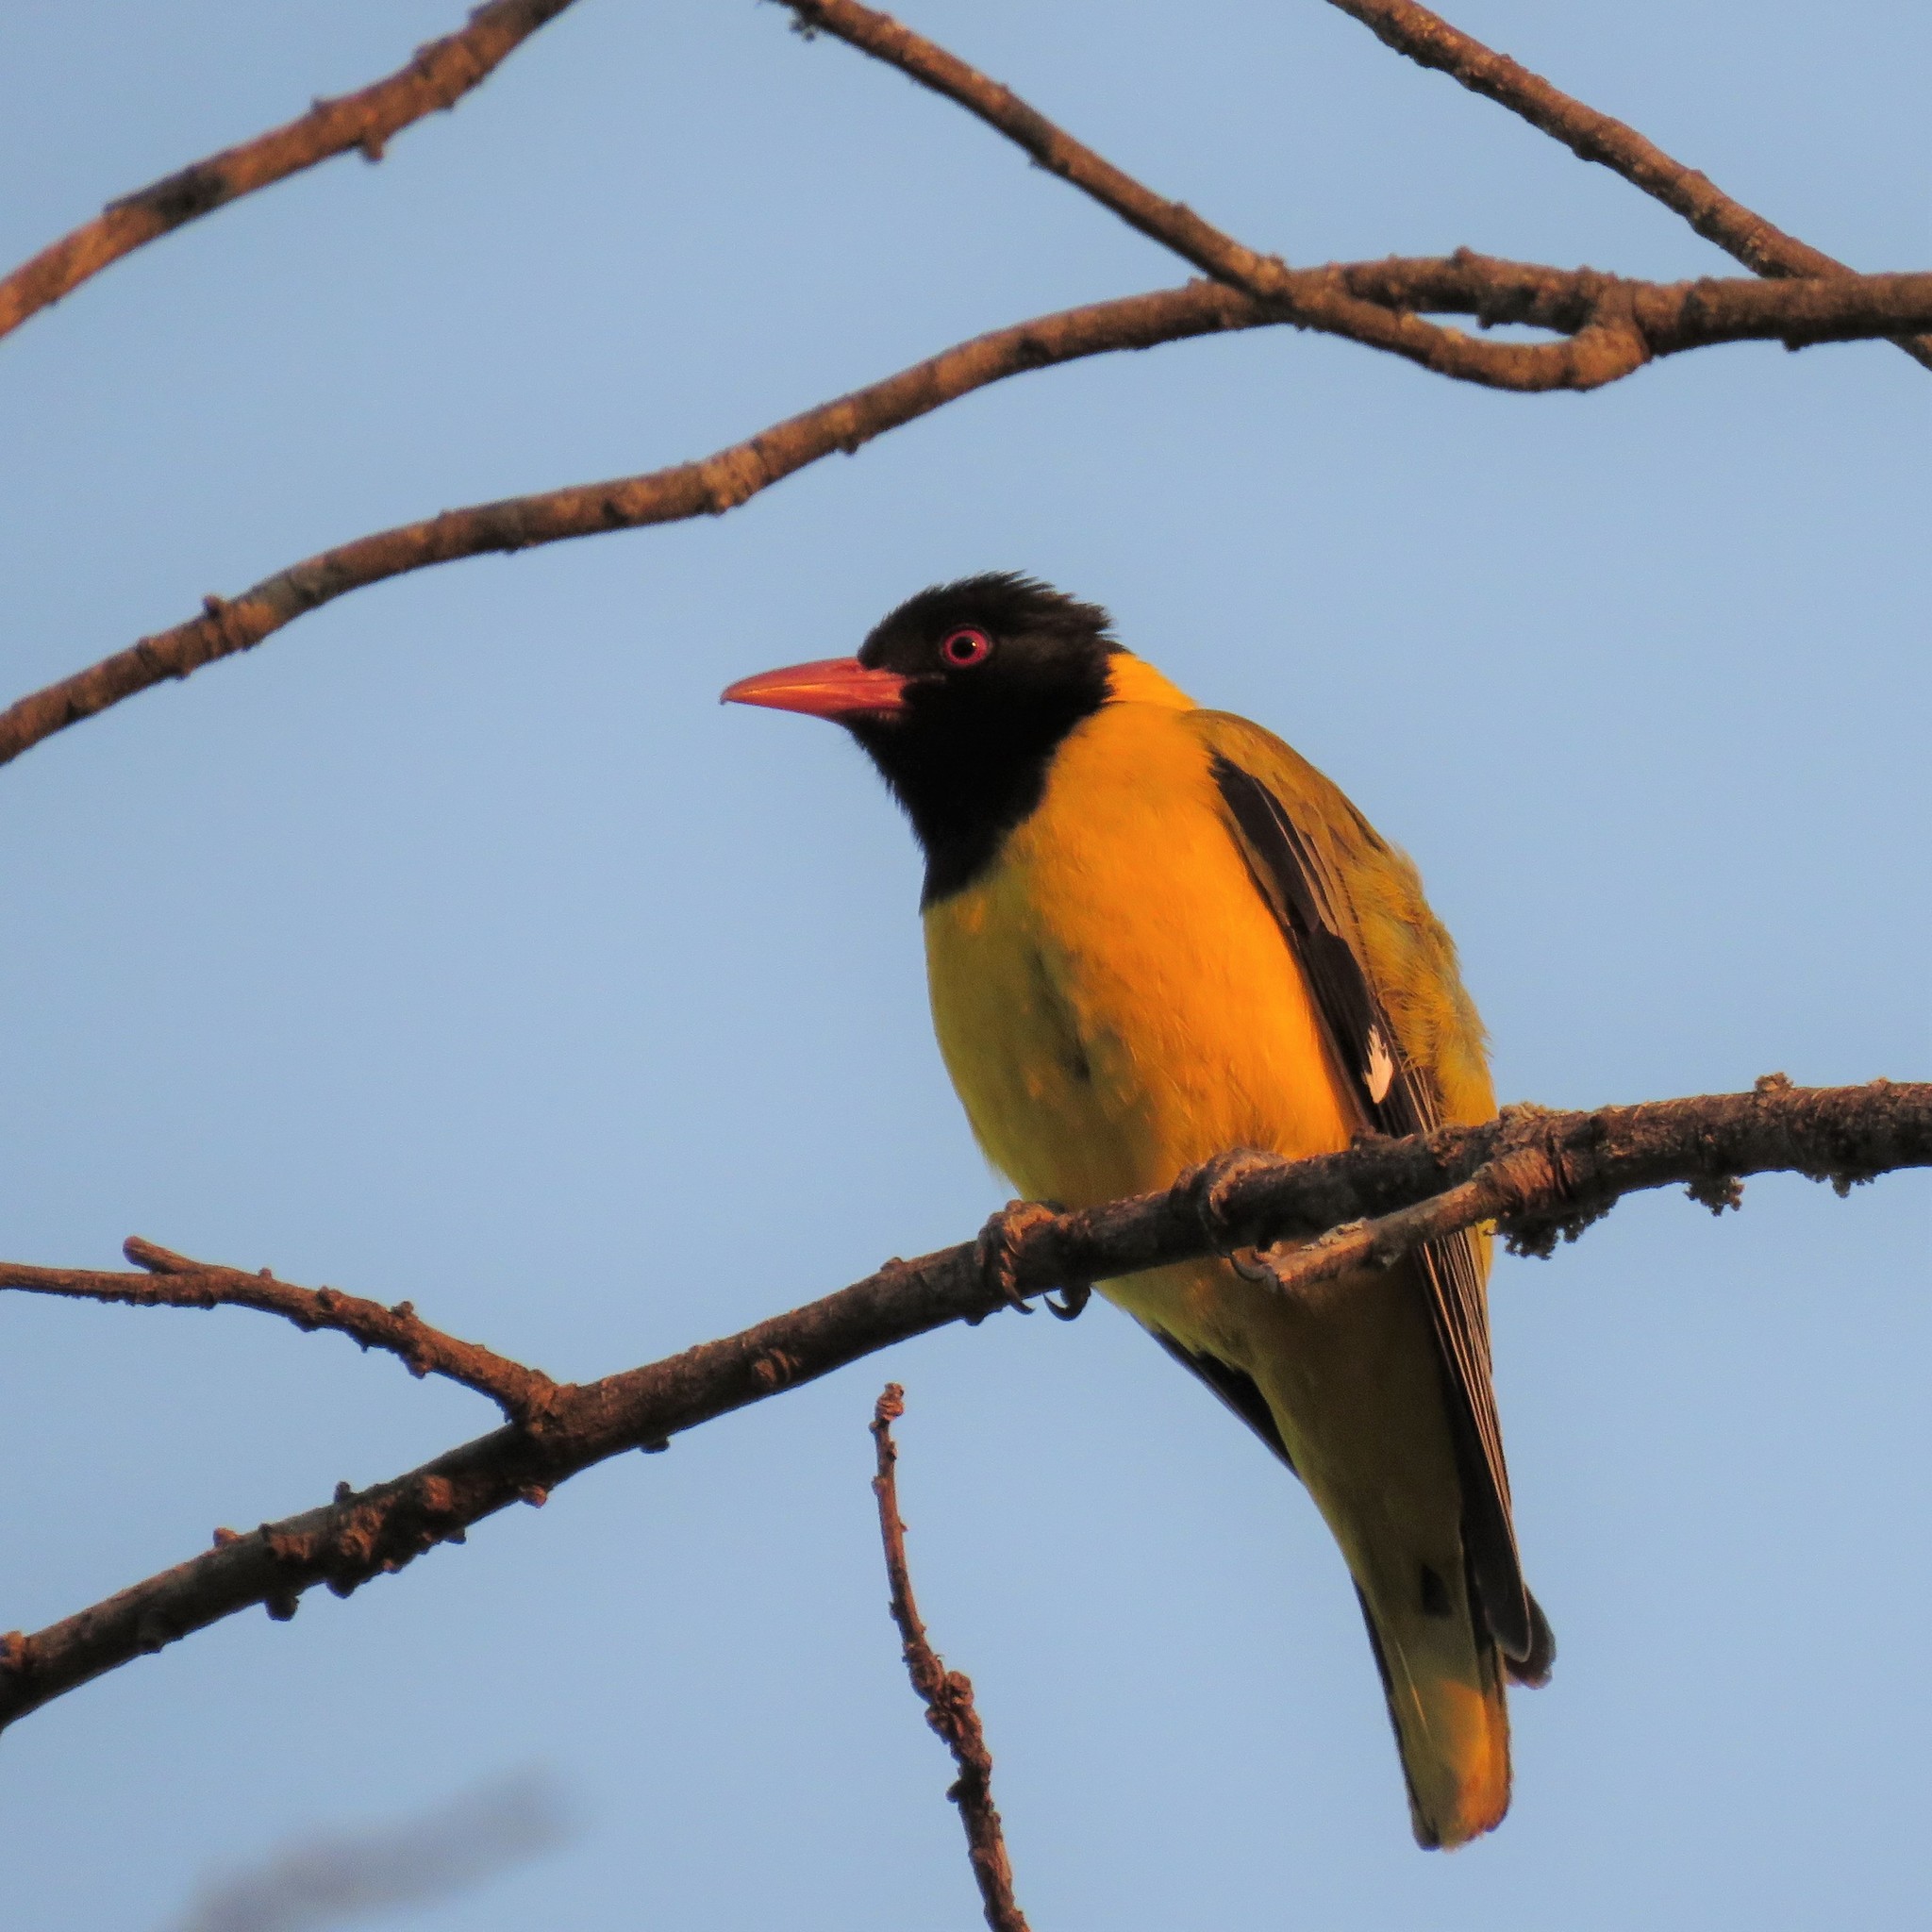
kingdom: Animalia
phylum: Chordata
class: Aves
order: Passeriformes
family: Oriolidae
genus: Oriolus
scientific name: Oriolus larvatus
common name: Black-headed oriole
